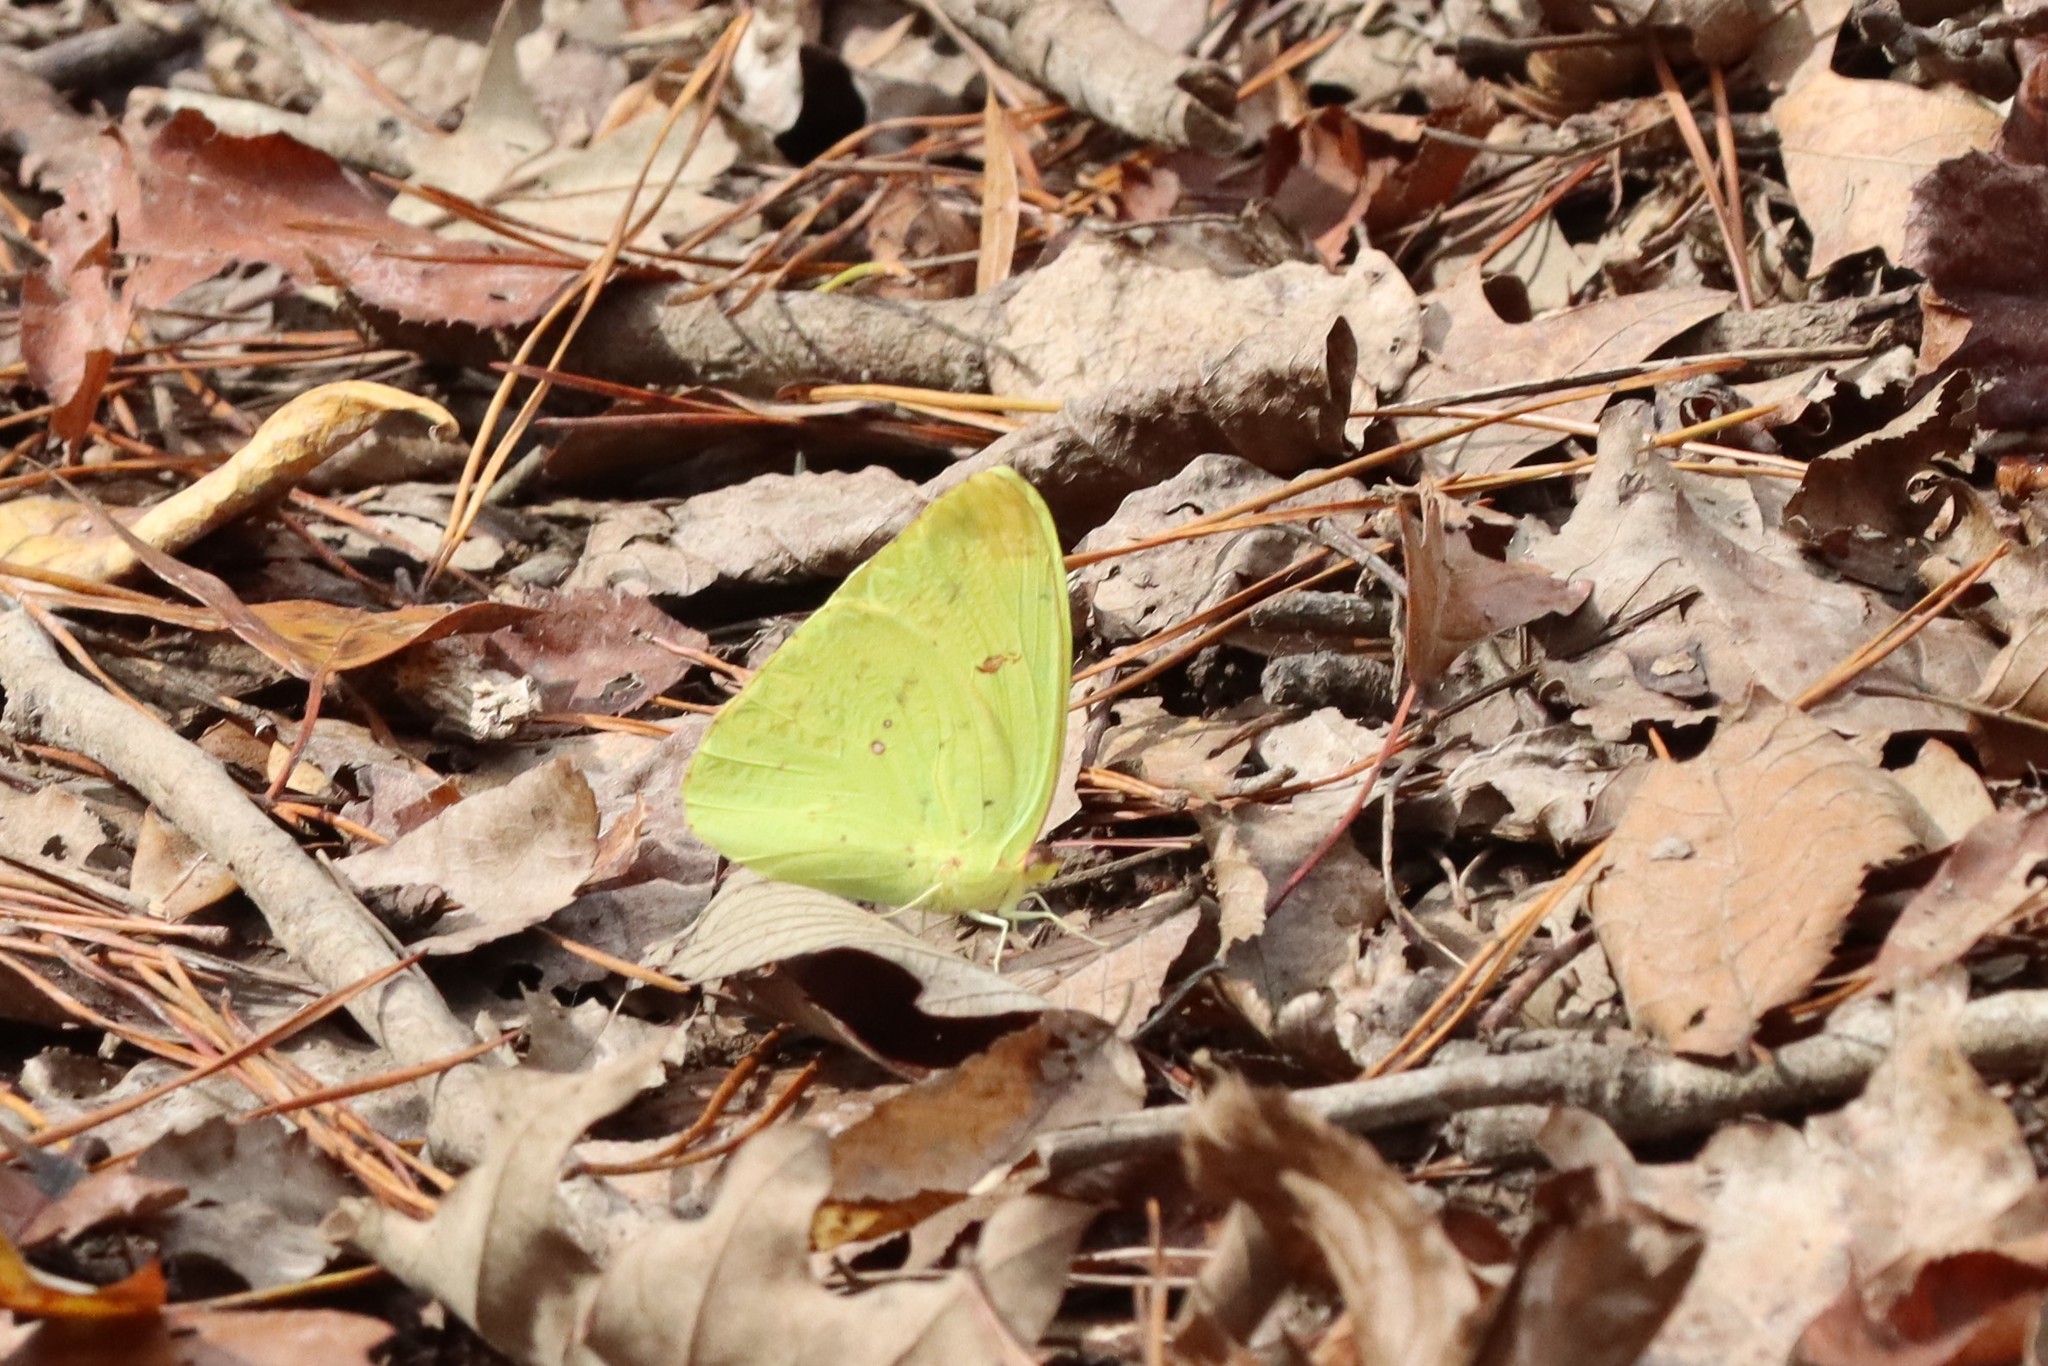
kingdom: Animalia
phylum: Arthropoda
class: Insecta
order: Lepidoptera
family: Pieridae
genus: Phoebis
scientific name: Phoebis sennae
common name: Cloudless sulphur
